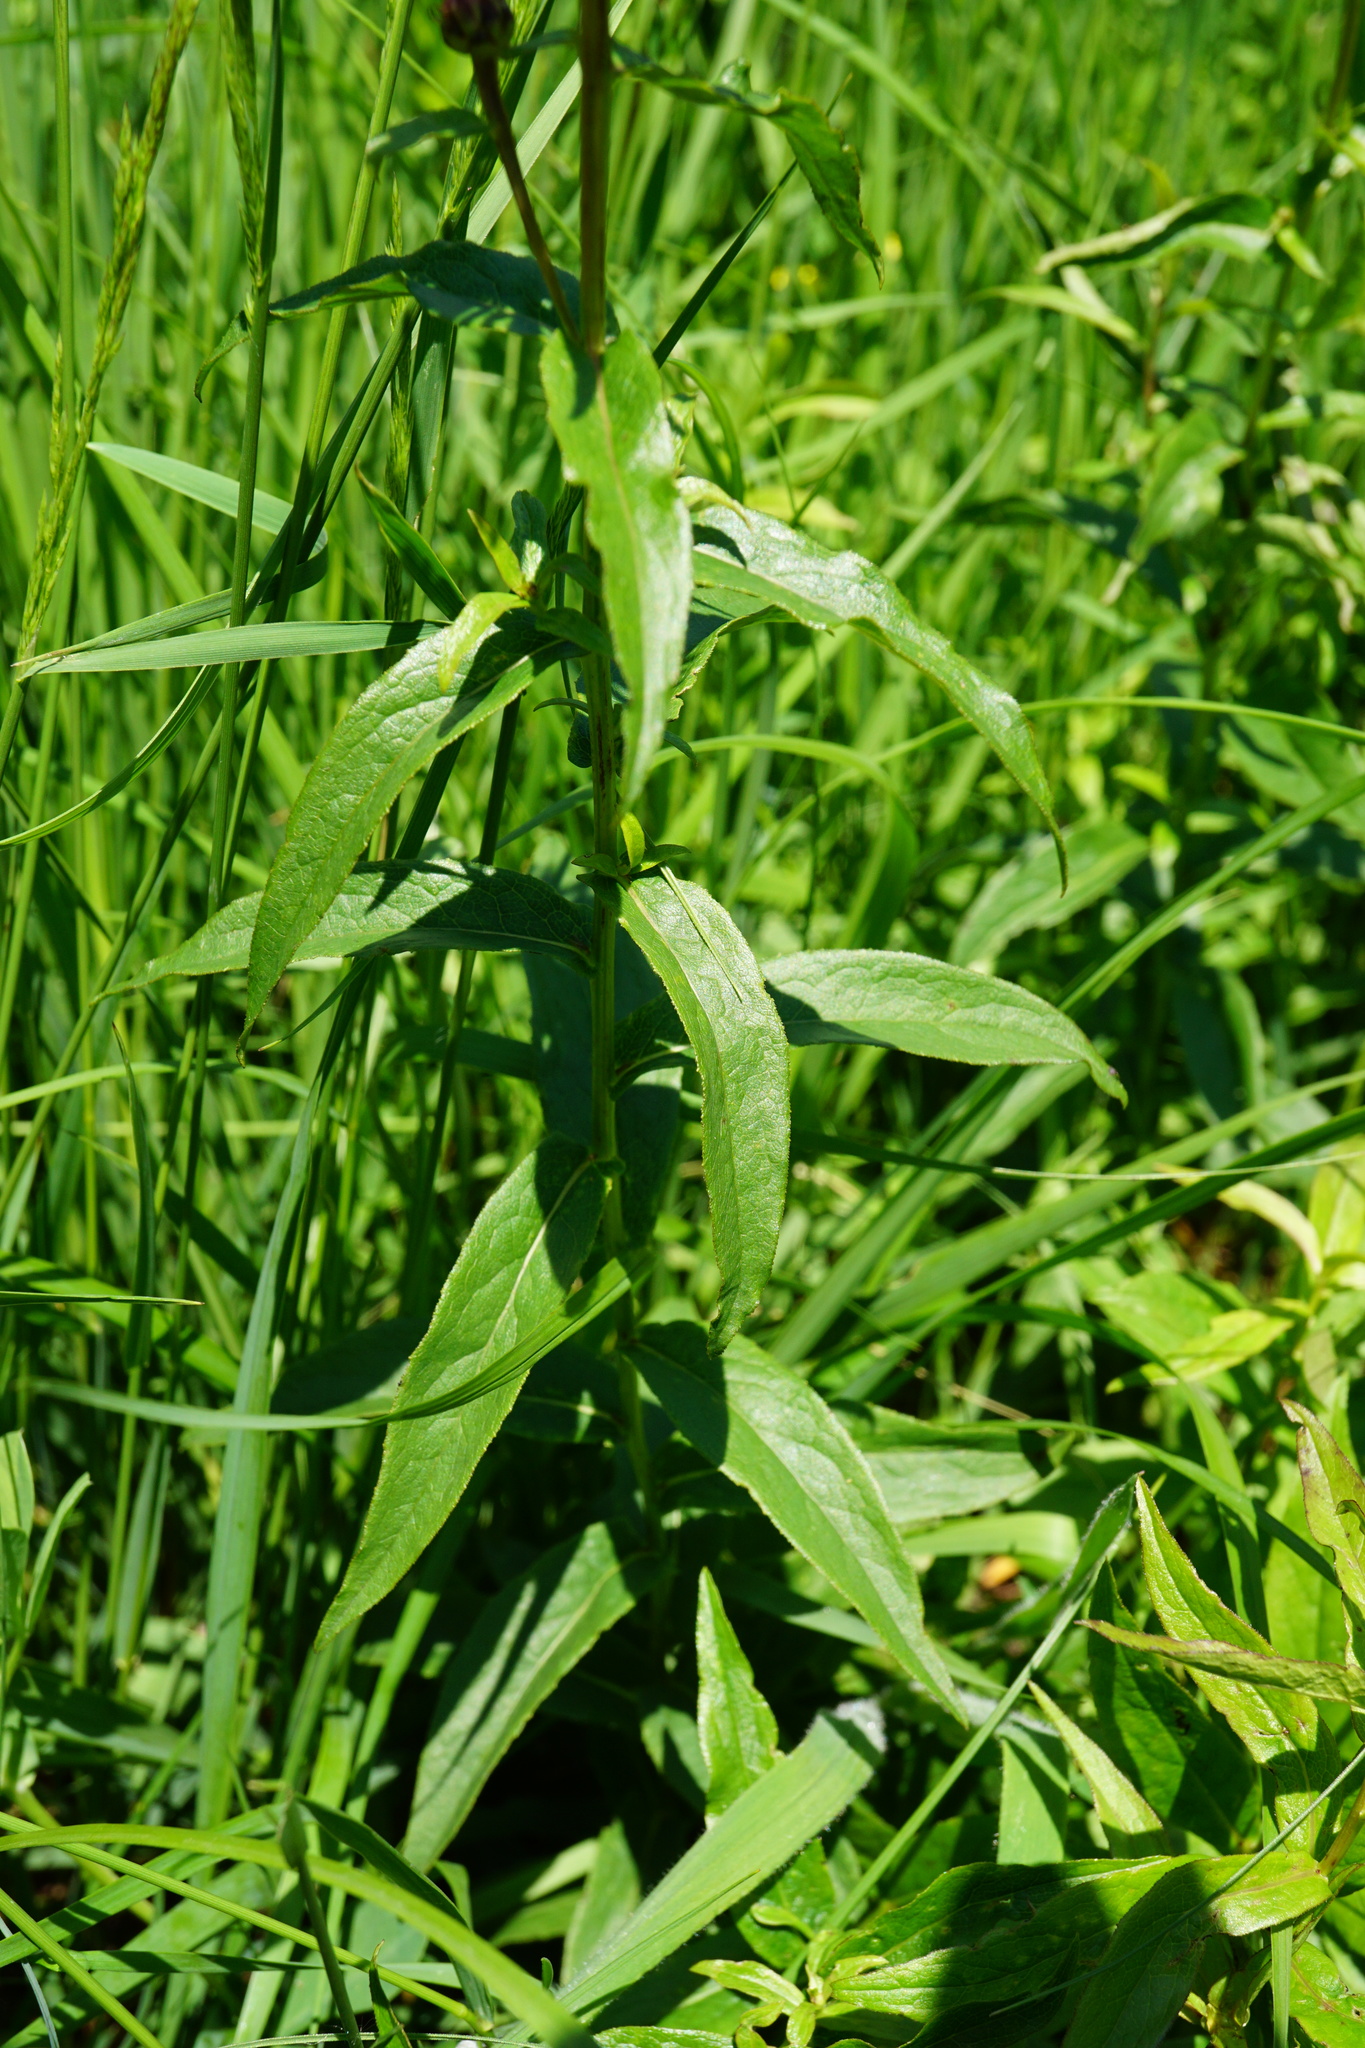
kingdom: Plantae
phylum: Tracheophyta
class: Magnoliopsida
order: Asterales
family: Asteraceae
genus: Pentanema
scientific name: Pentanema salicinum
